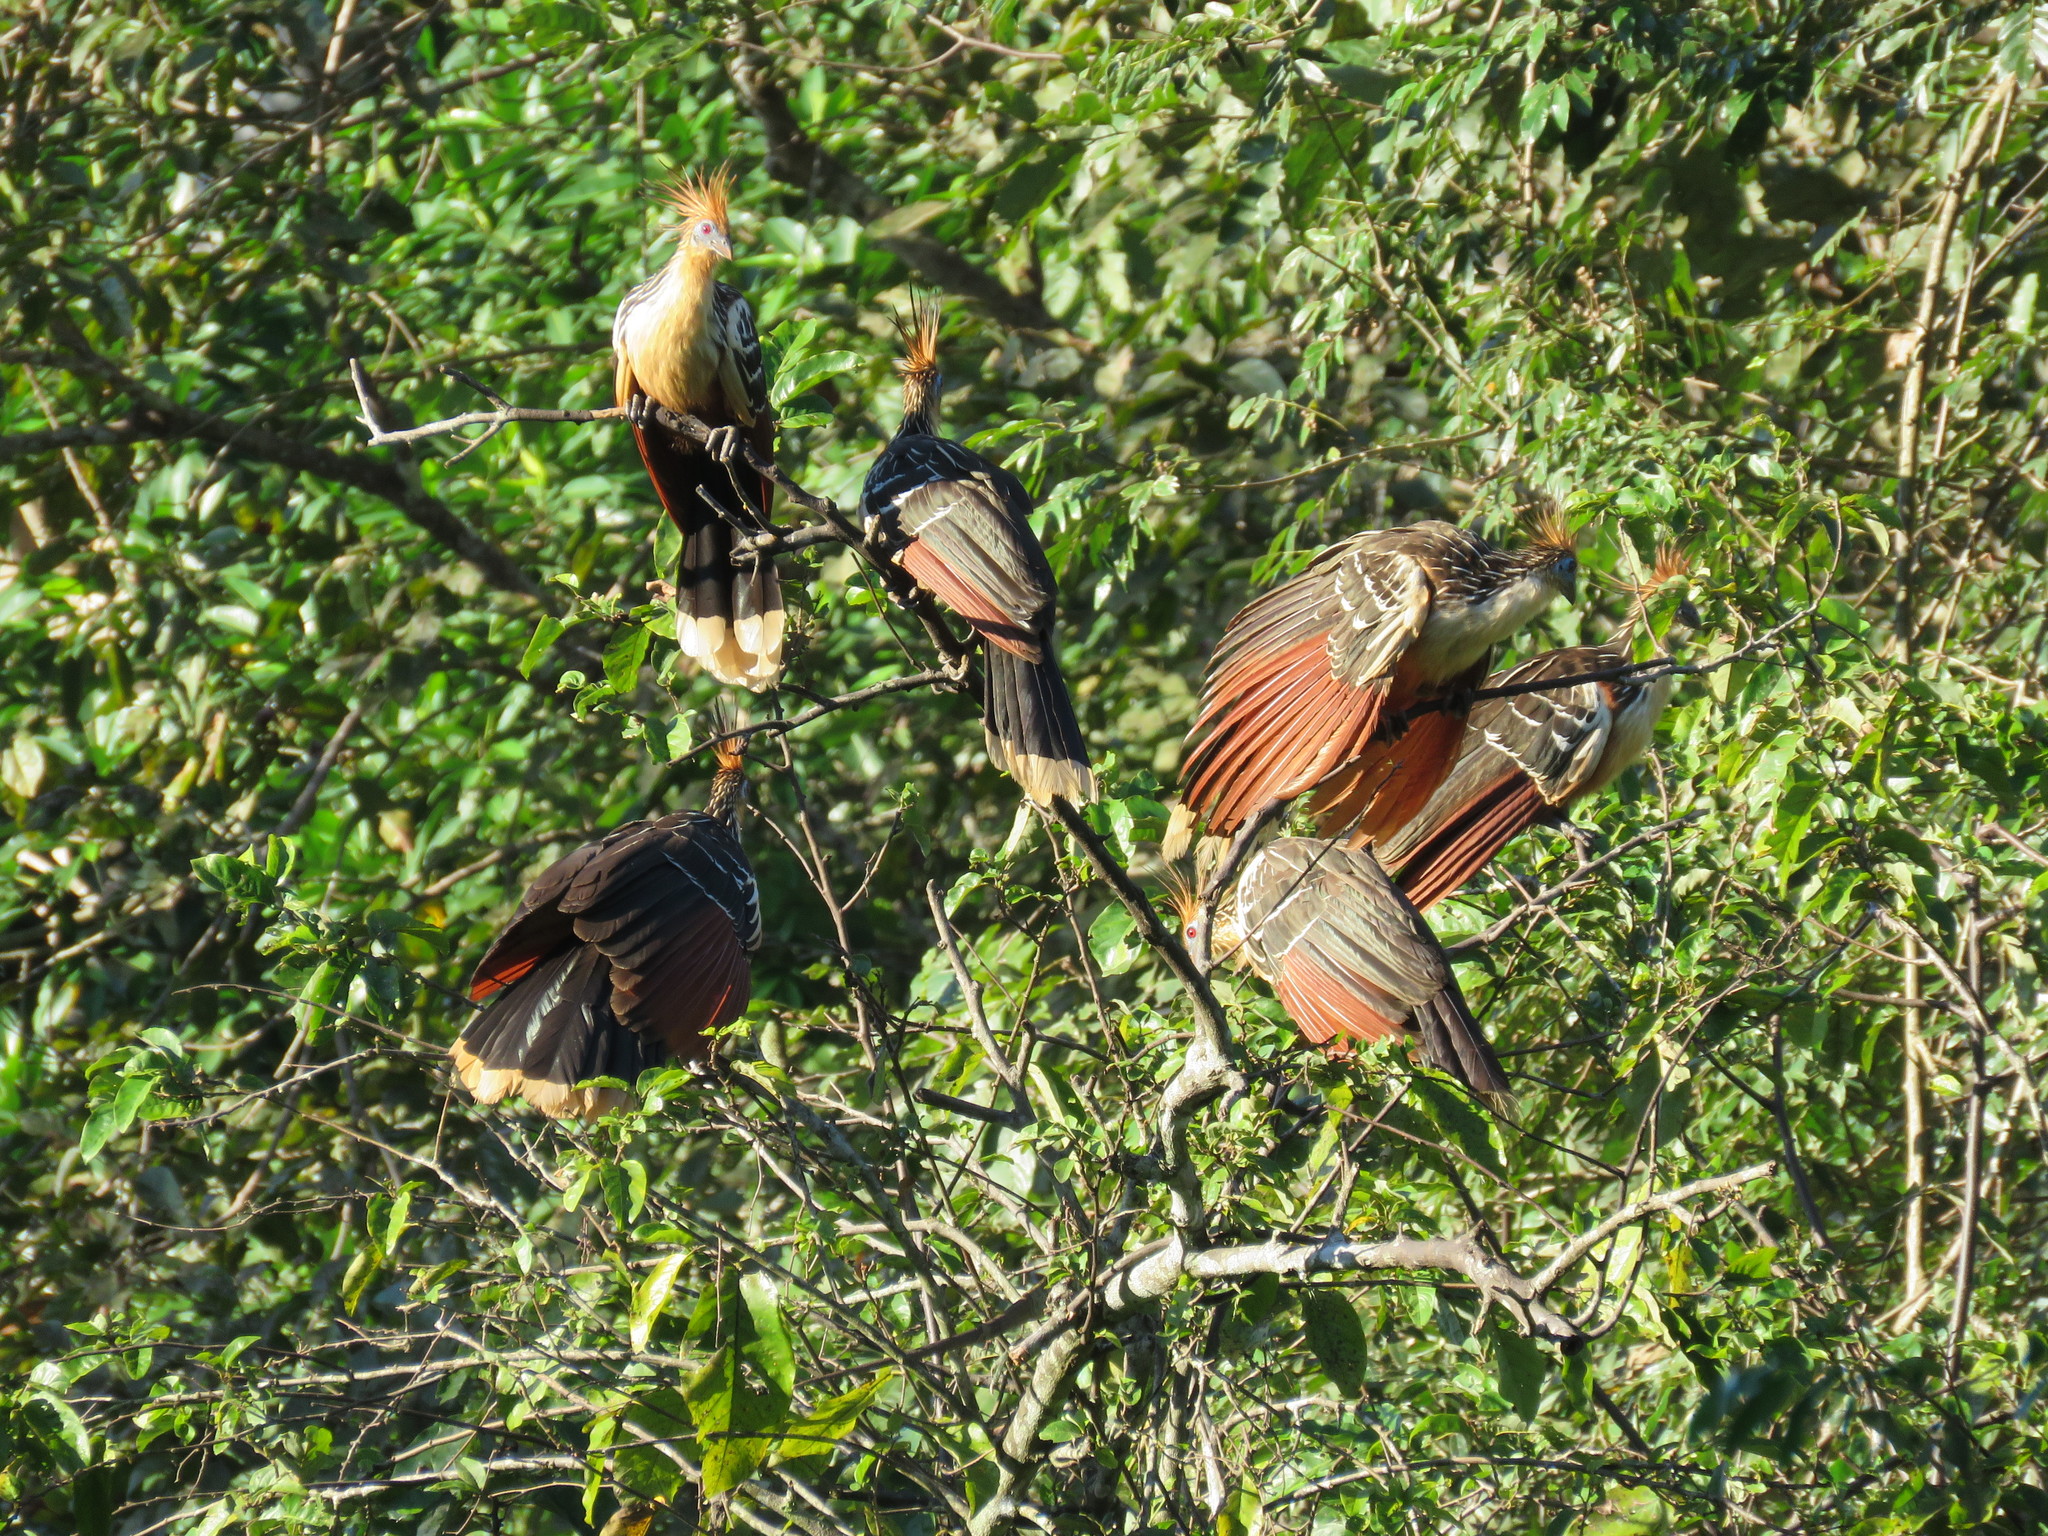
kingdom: Animalia
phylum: Chordata
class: Aves
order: Opisthocomiformes
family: Opisthocomidae
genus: Opisthocomus
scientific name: Opisthocomus hoazin
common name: Hoatzin
